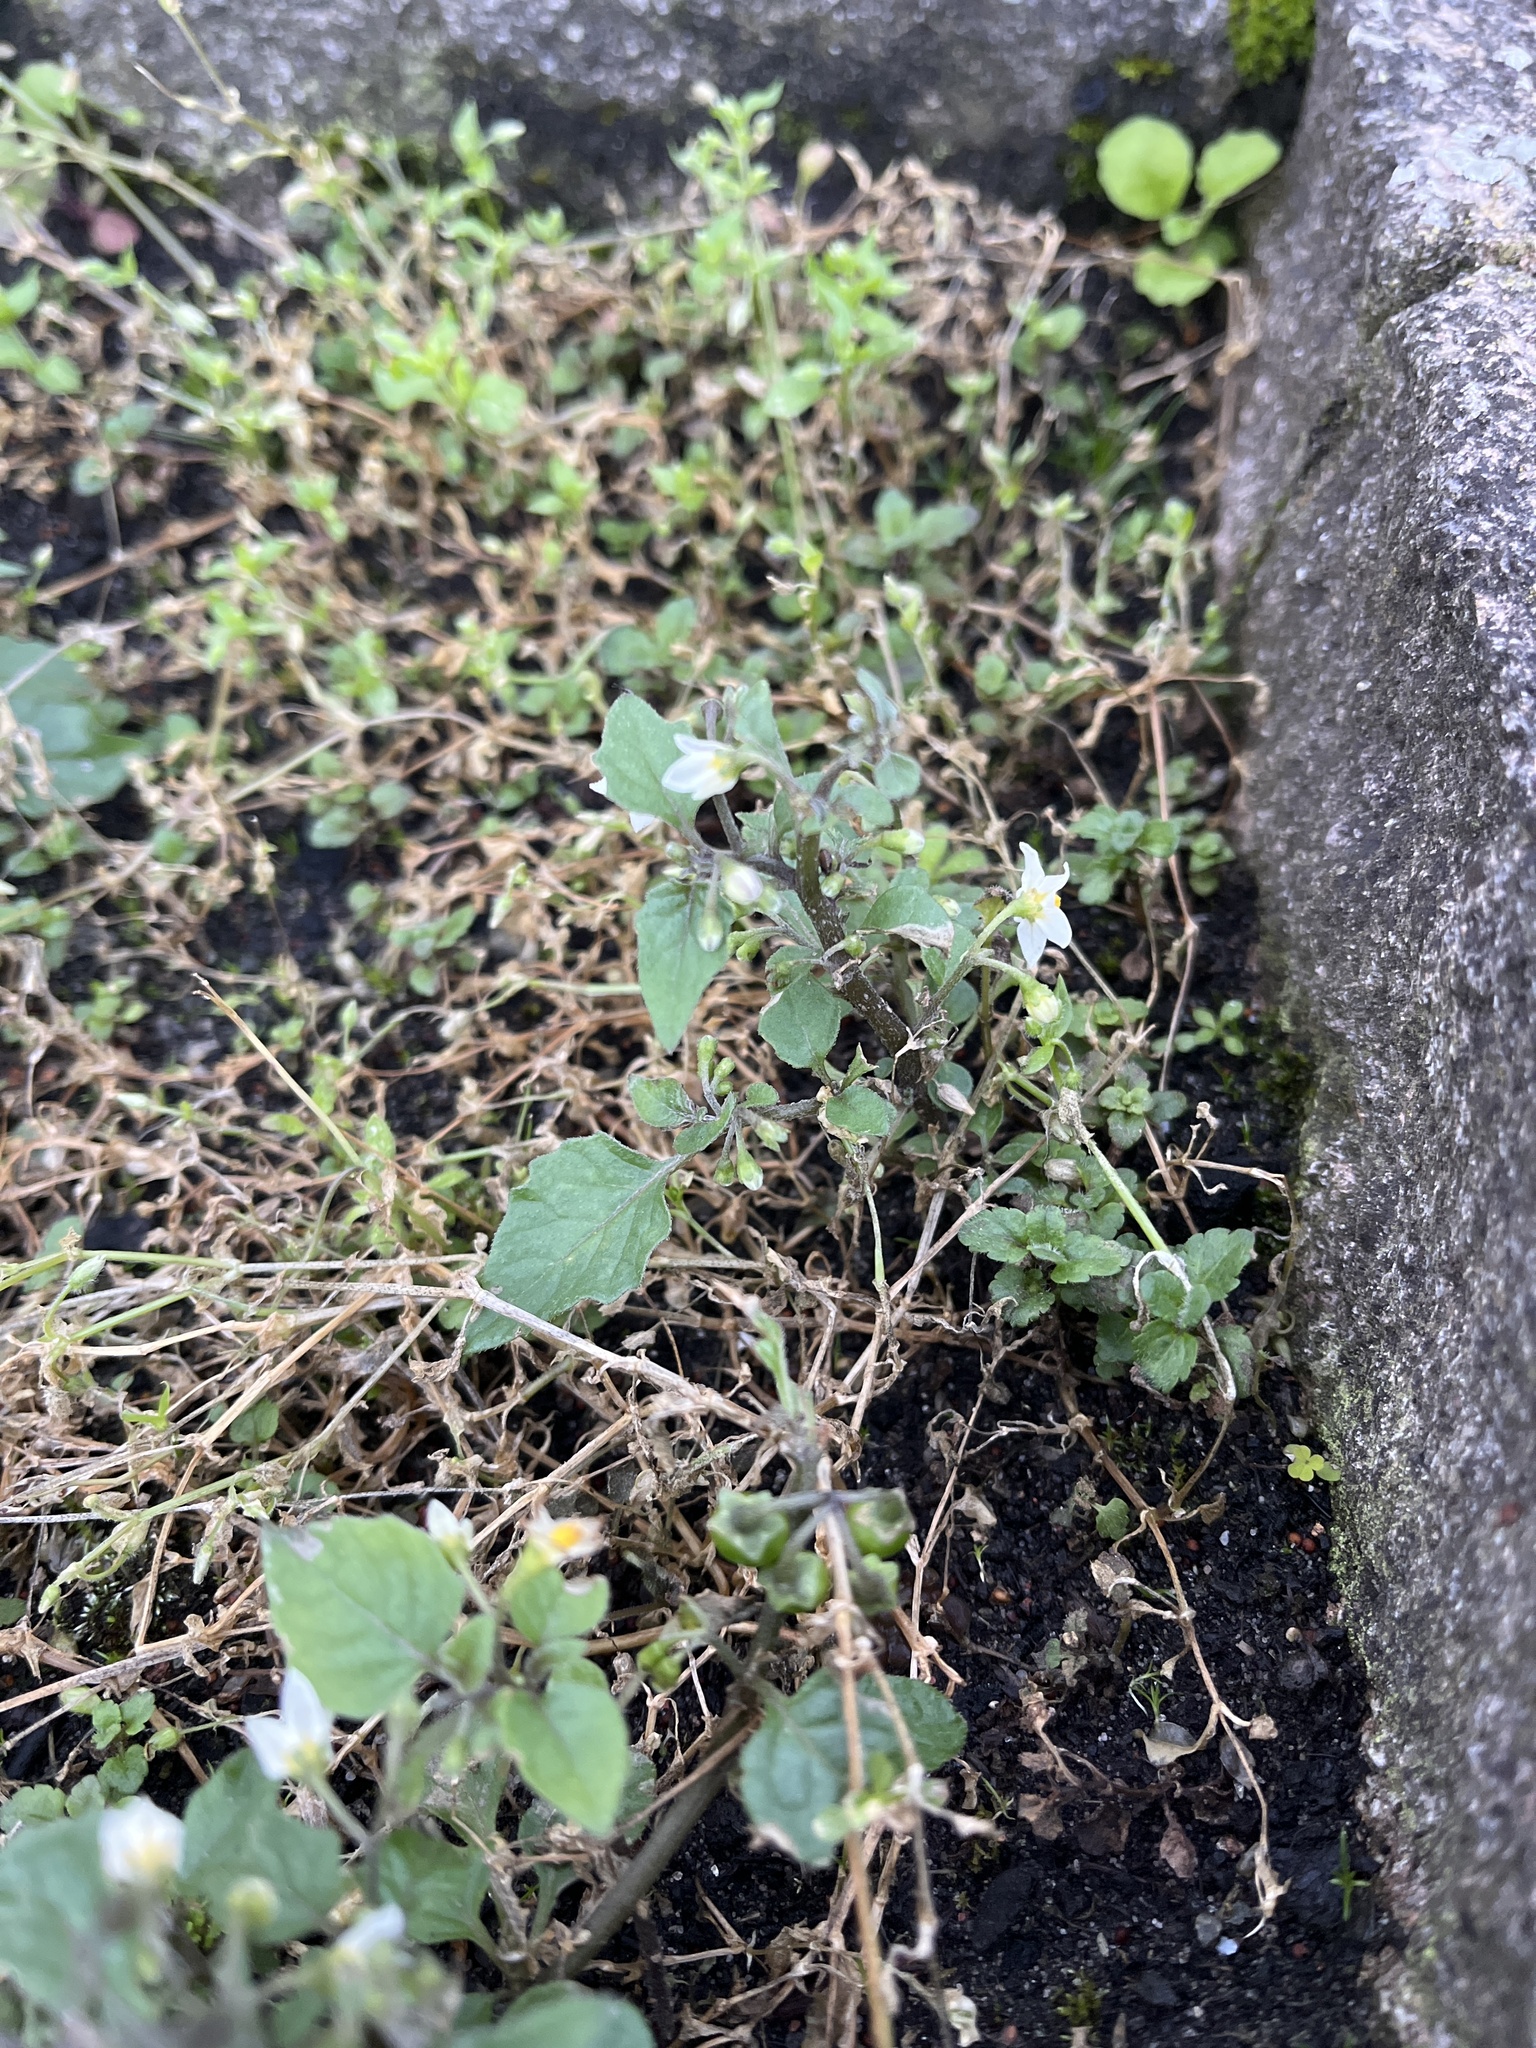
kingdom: Plantae
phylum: Tracheophyta
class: Magnoliopsida
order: Solanales
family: Solanaceae
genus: Solanum
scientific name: Solanum nigrum
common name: Black nightshade
